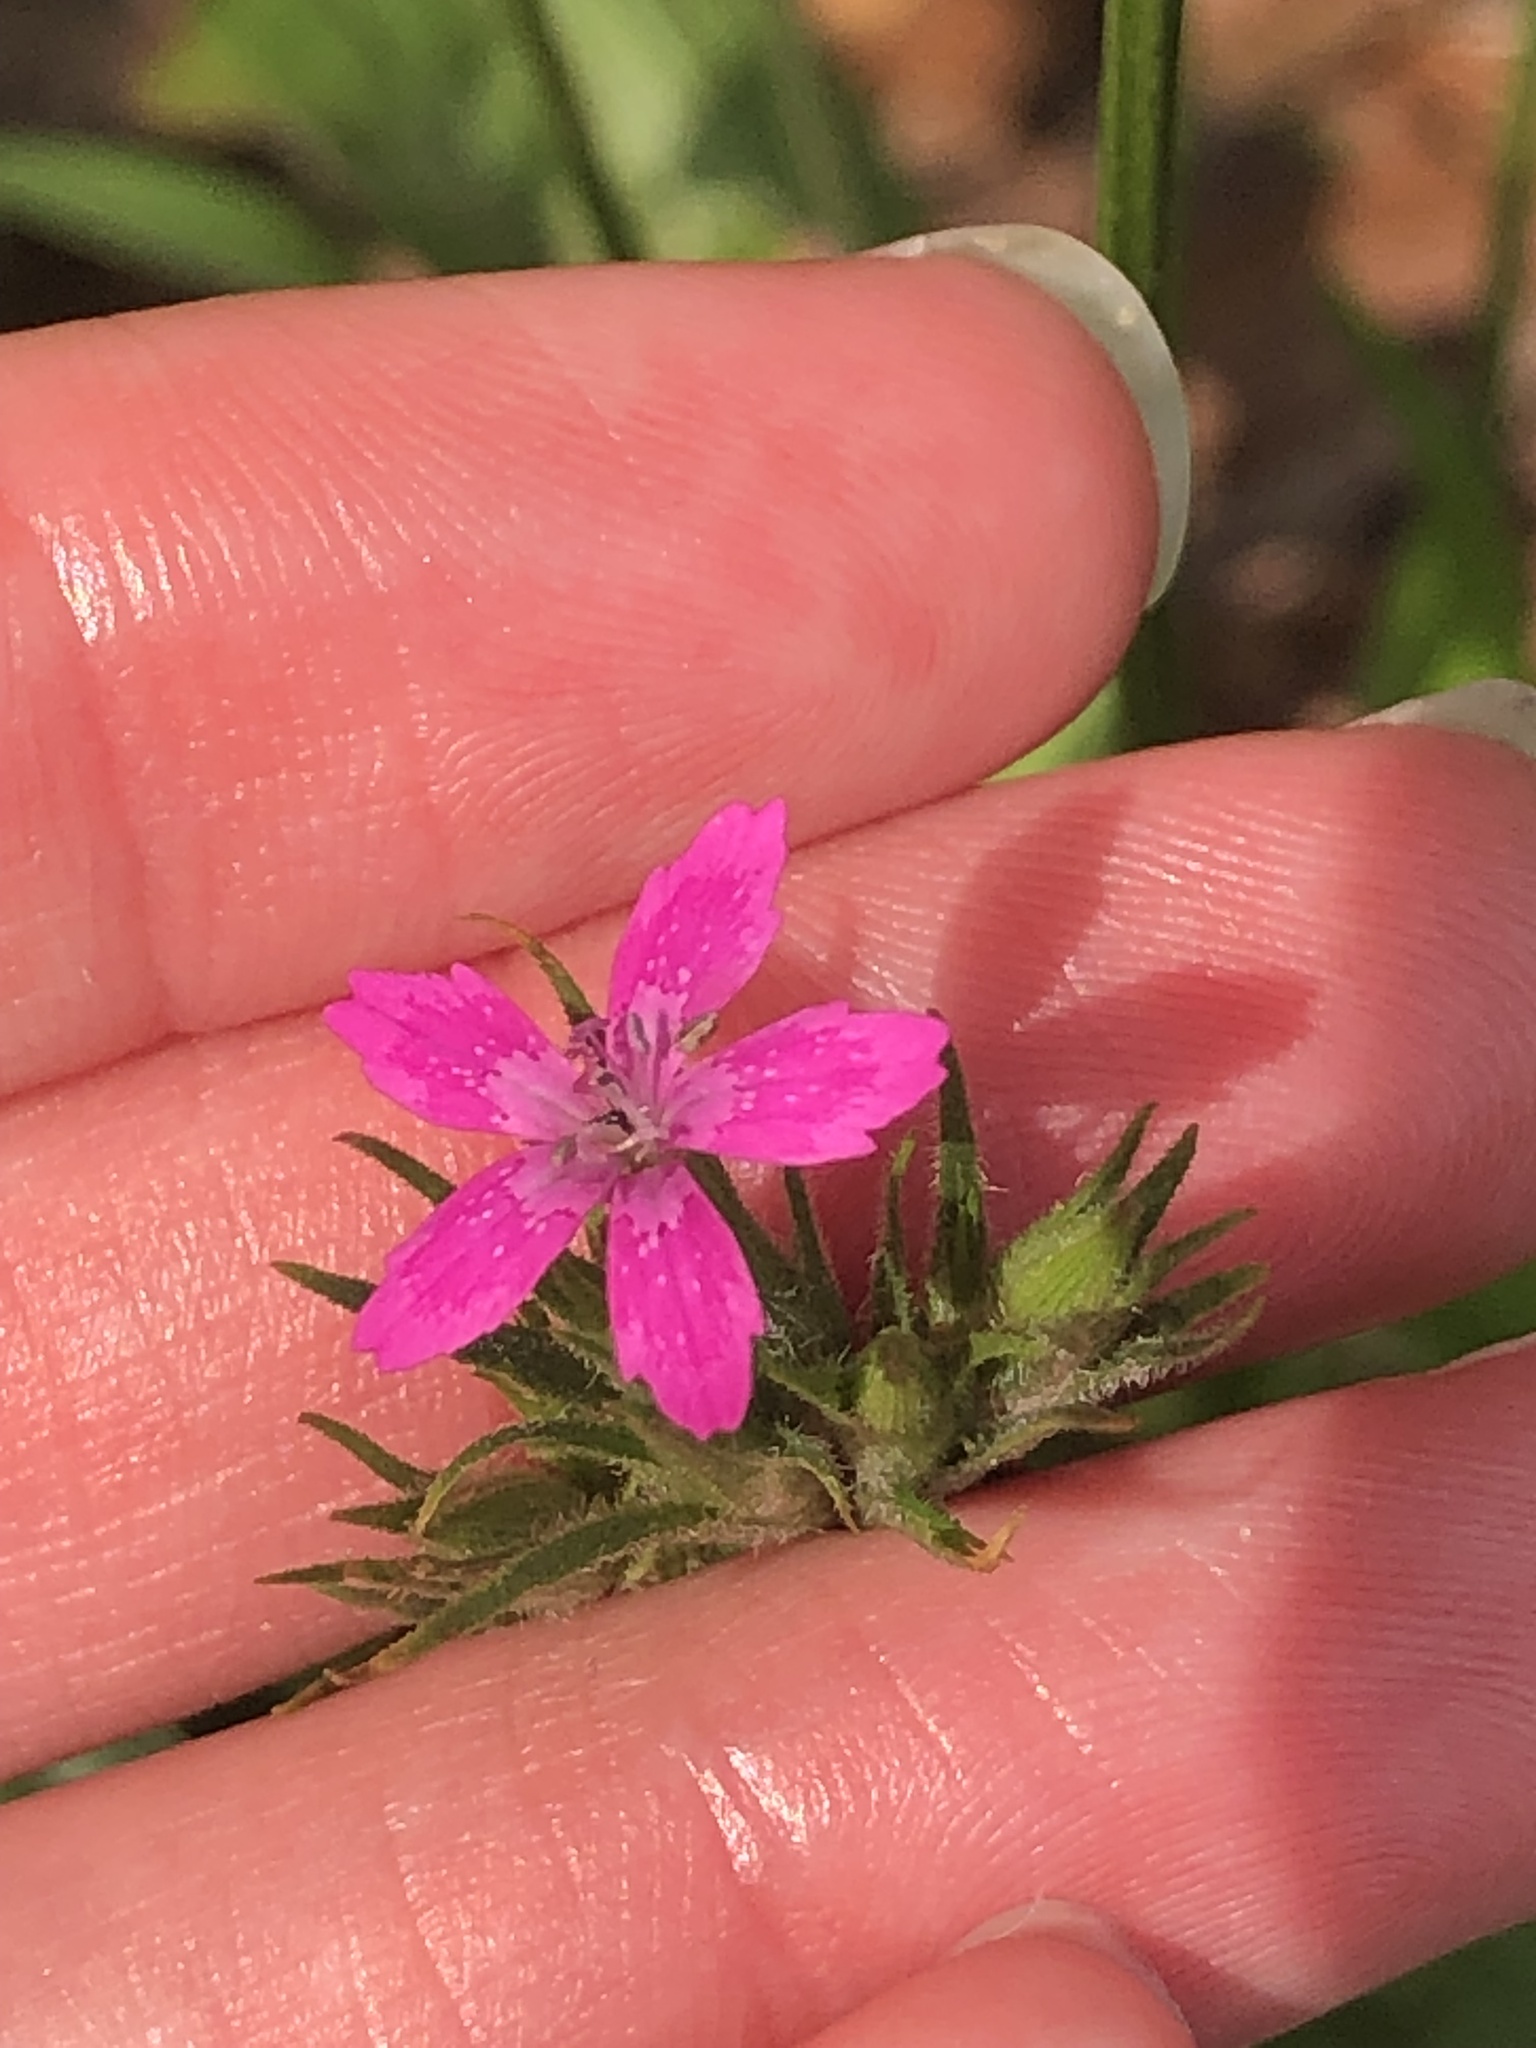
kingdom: Plantae
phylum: Tracheophyta
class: Magnoliopsida
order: Caryophyllales
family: Caryophyllaceae
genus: Dianthus
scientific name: Dianthus armeria
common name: Deptford pink
